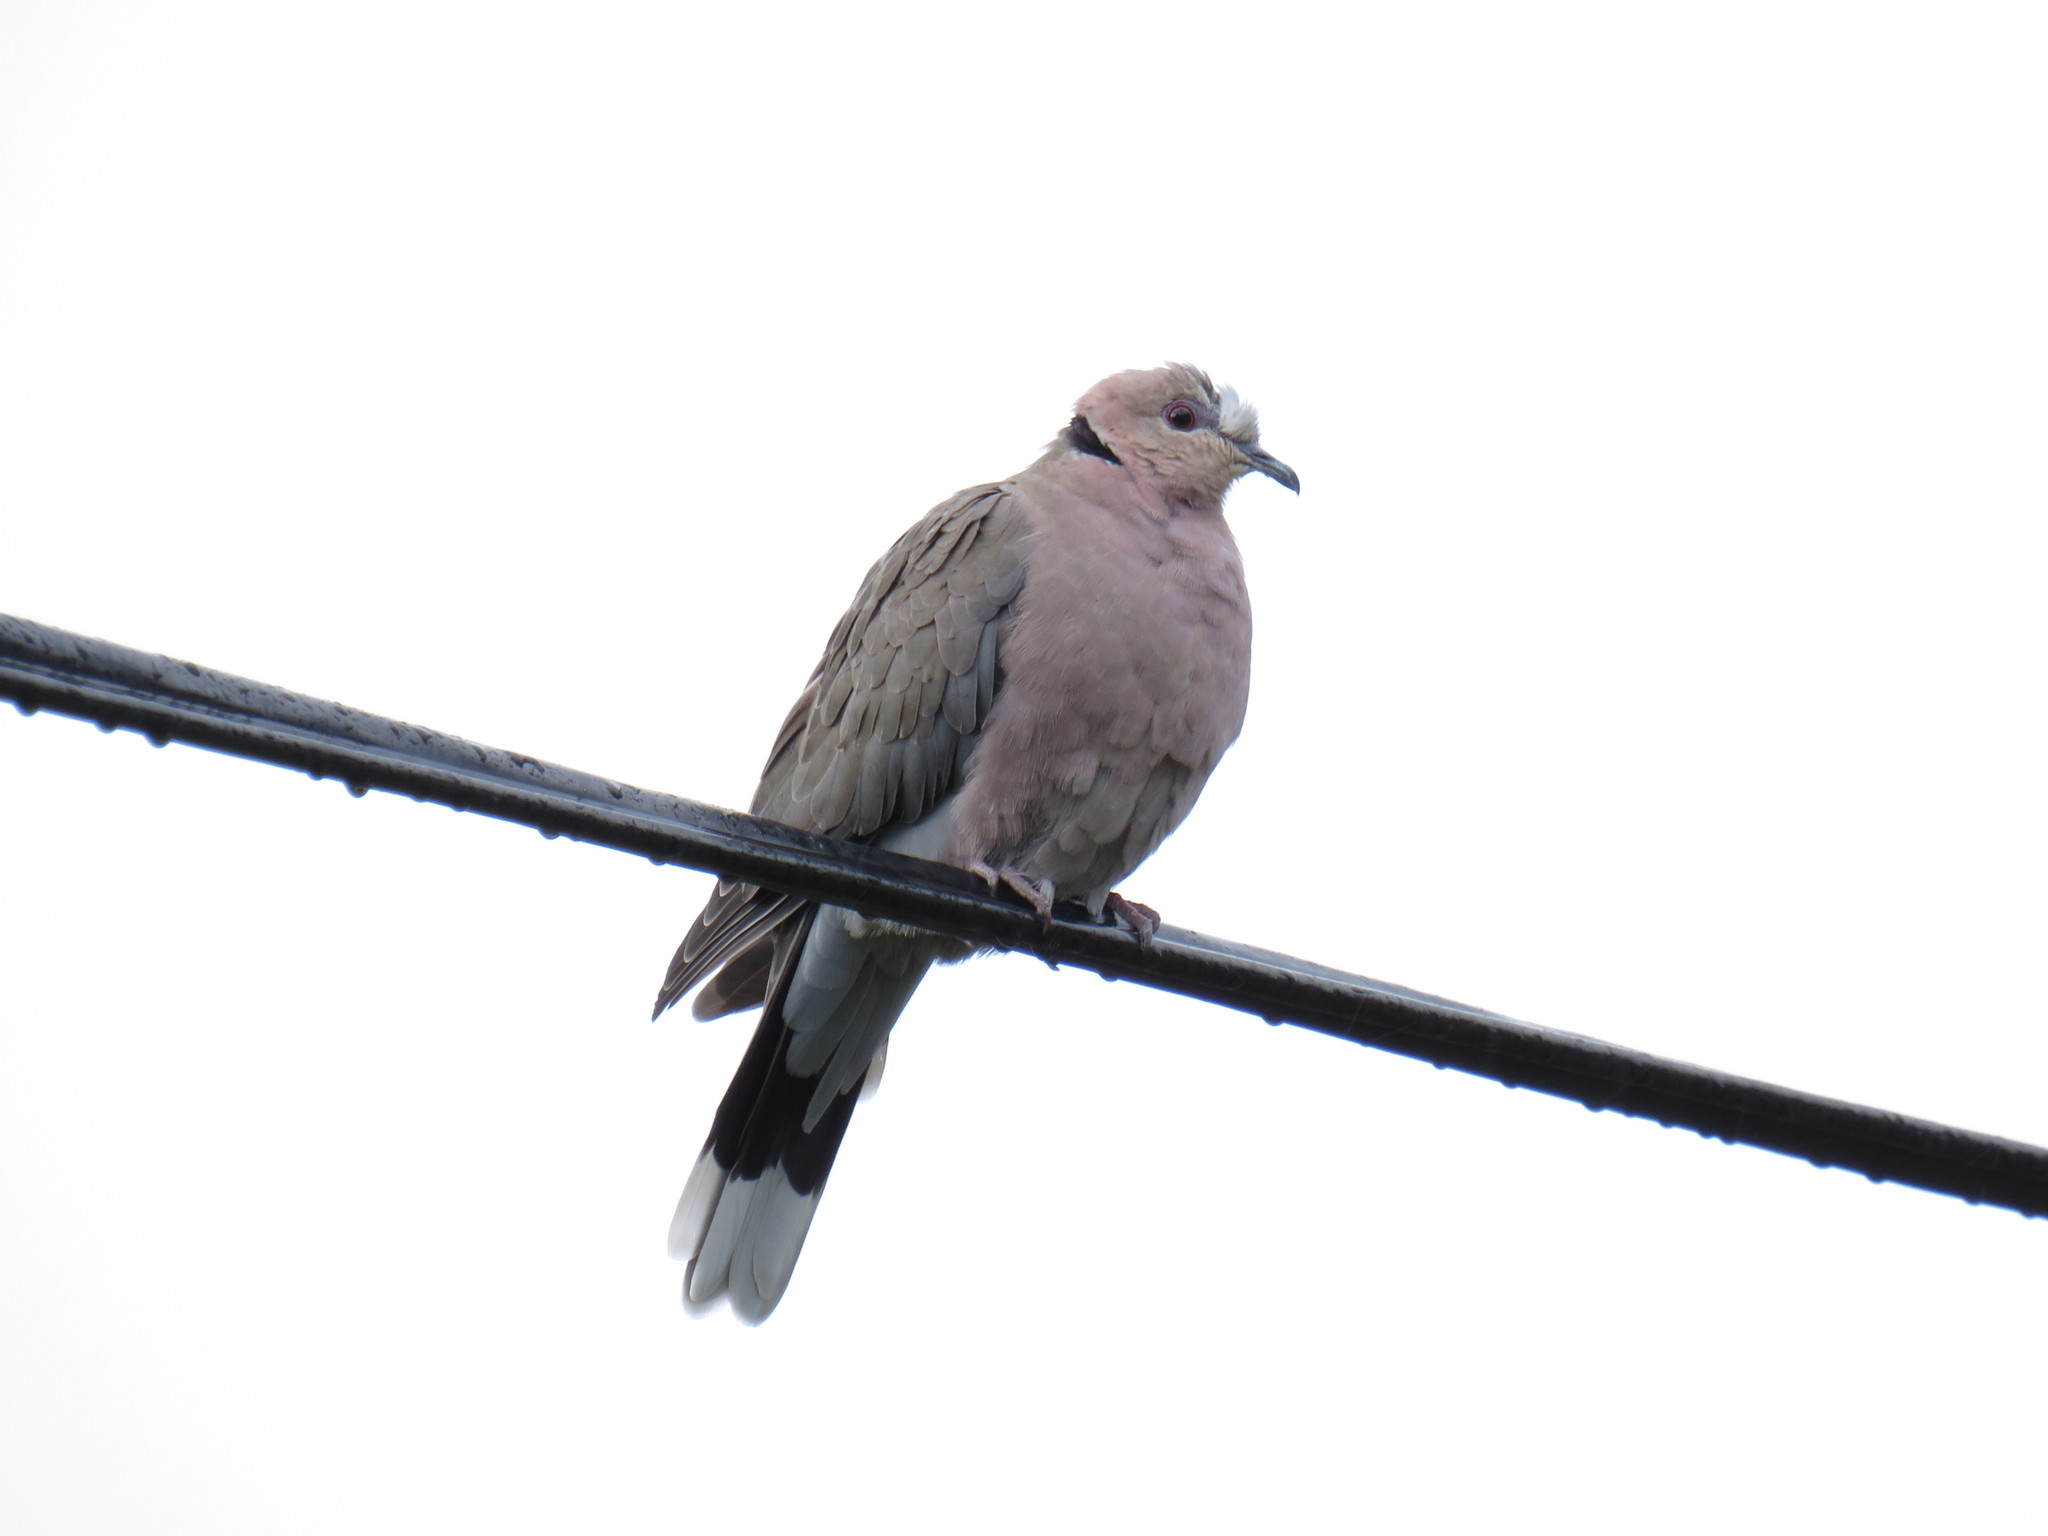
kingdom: Animalia
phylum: Chordata
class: Aves
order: Columbiformes
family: Columbidae
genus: Streptopelia
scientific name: Streptopelia semitorquata
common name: Red-eyed dove
